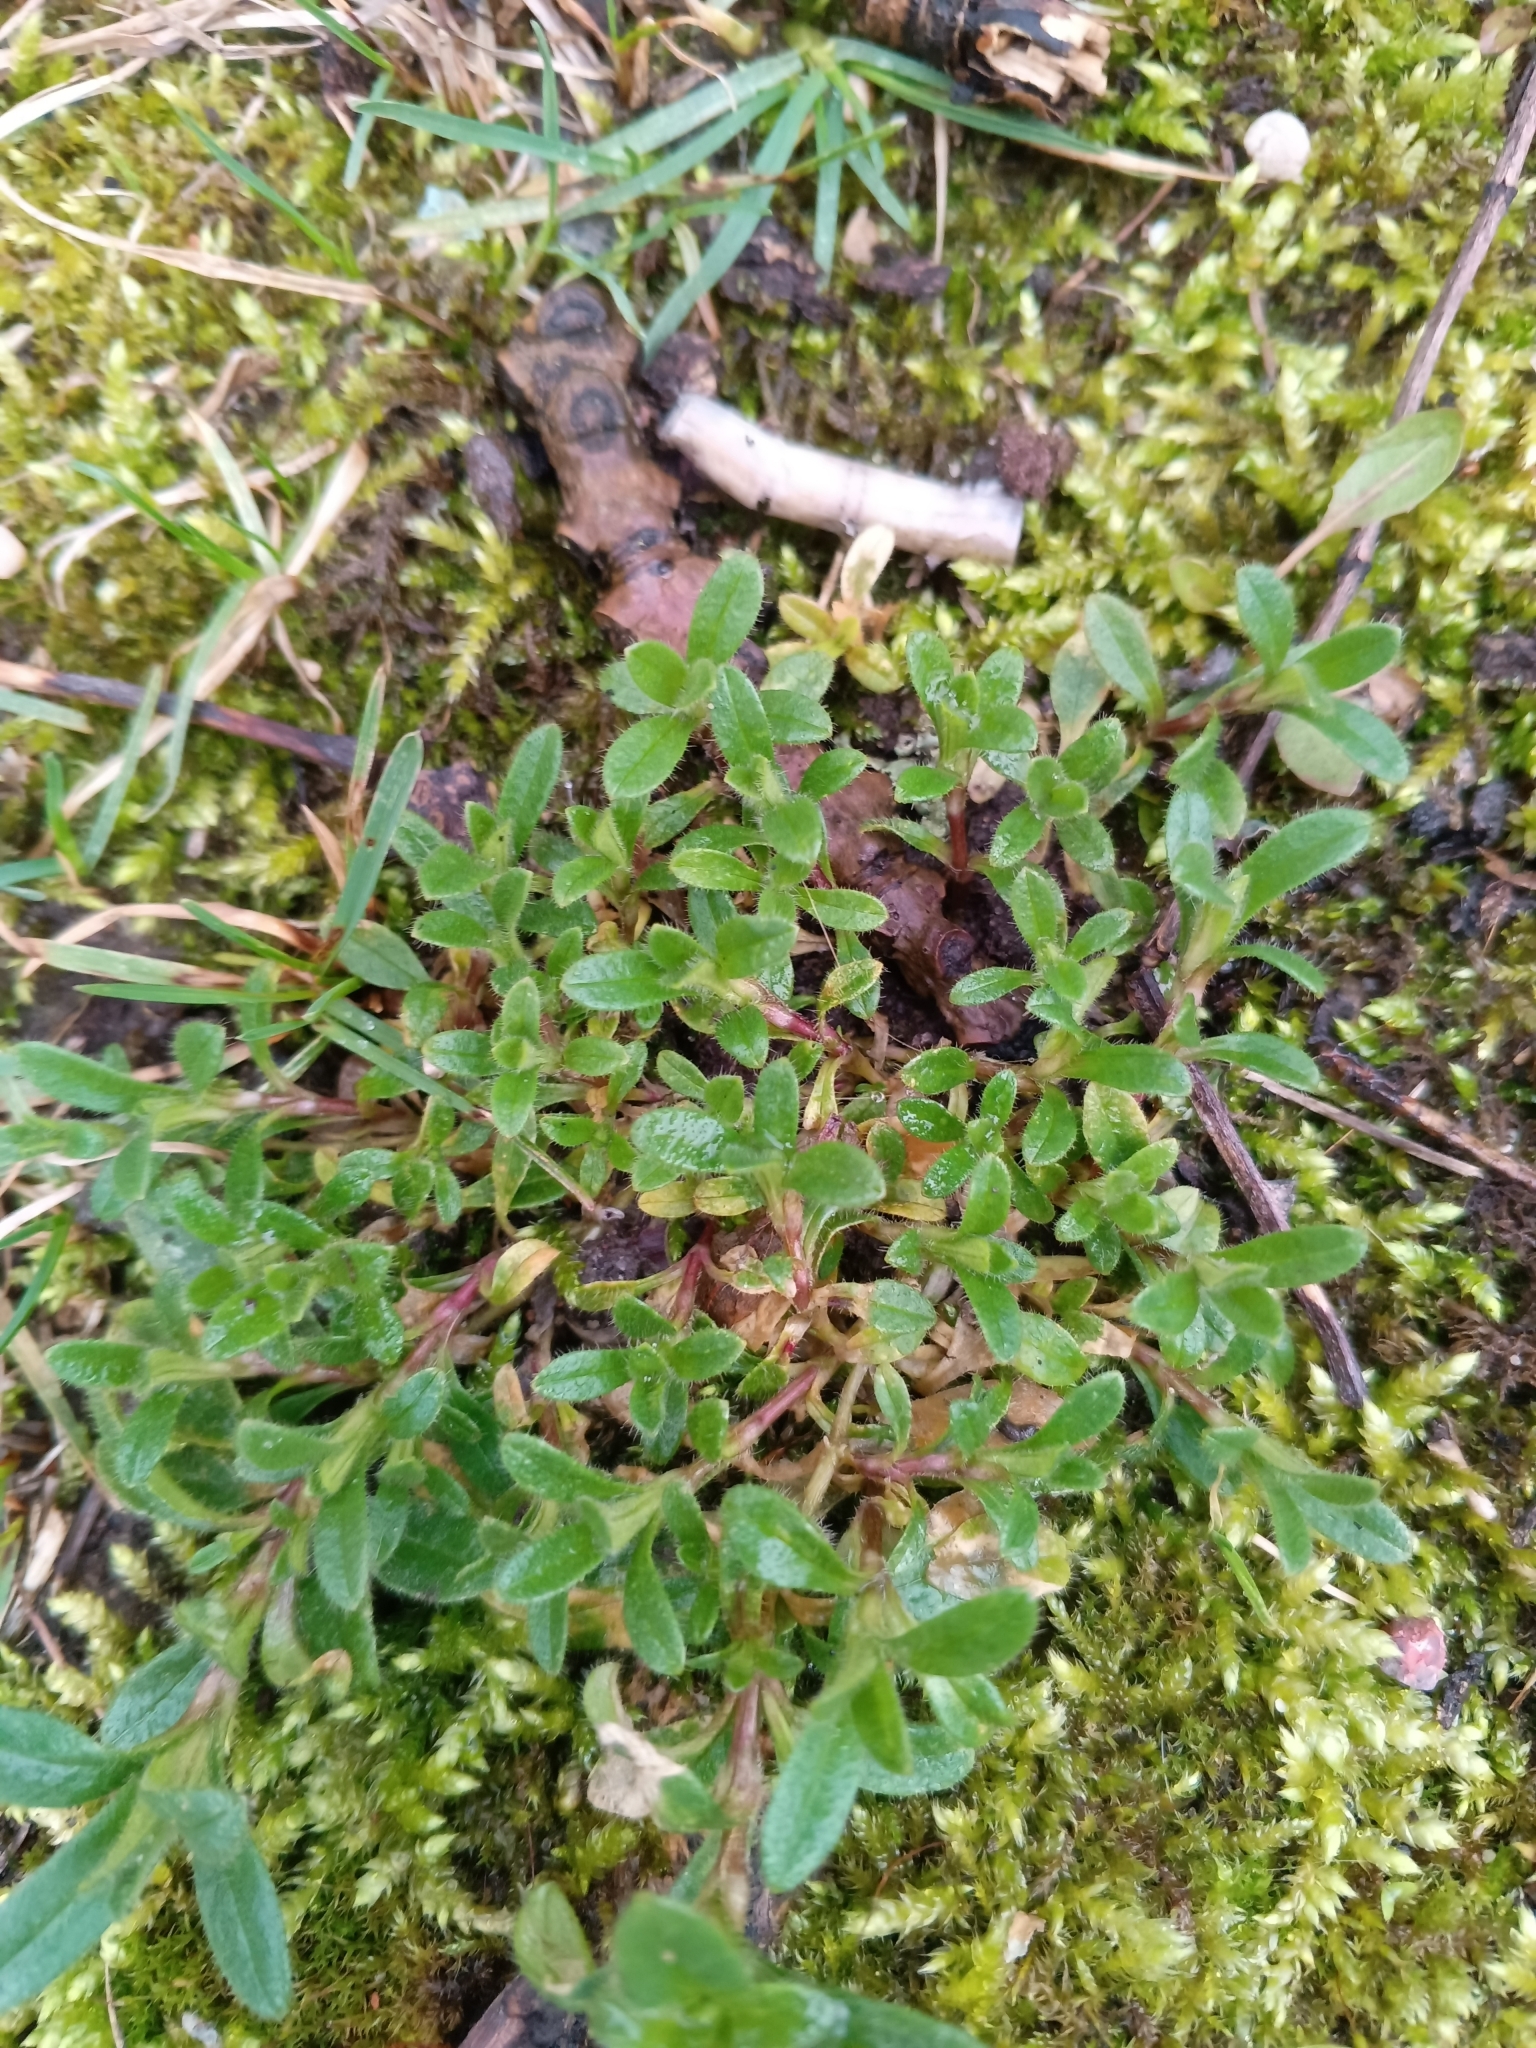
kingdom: Plantae
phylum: Tracheophyta
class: Magnoliopsida
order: Caryophyllales
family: Caryophyllaceae
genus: Cerastium
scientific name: Cerastium holosteoides
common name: Big chickweed
